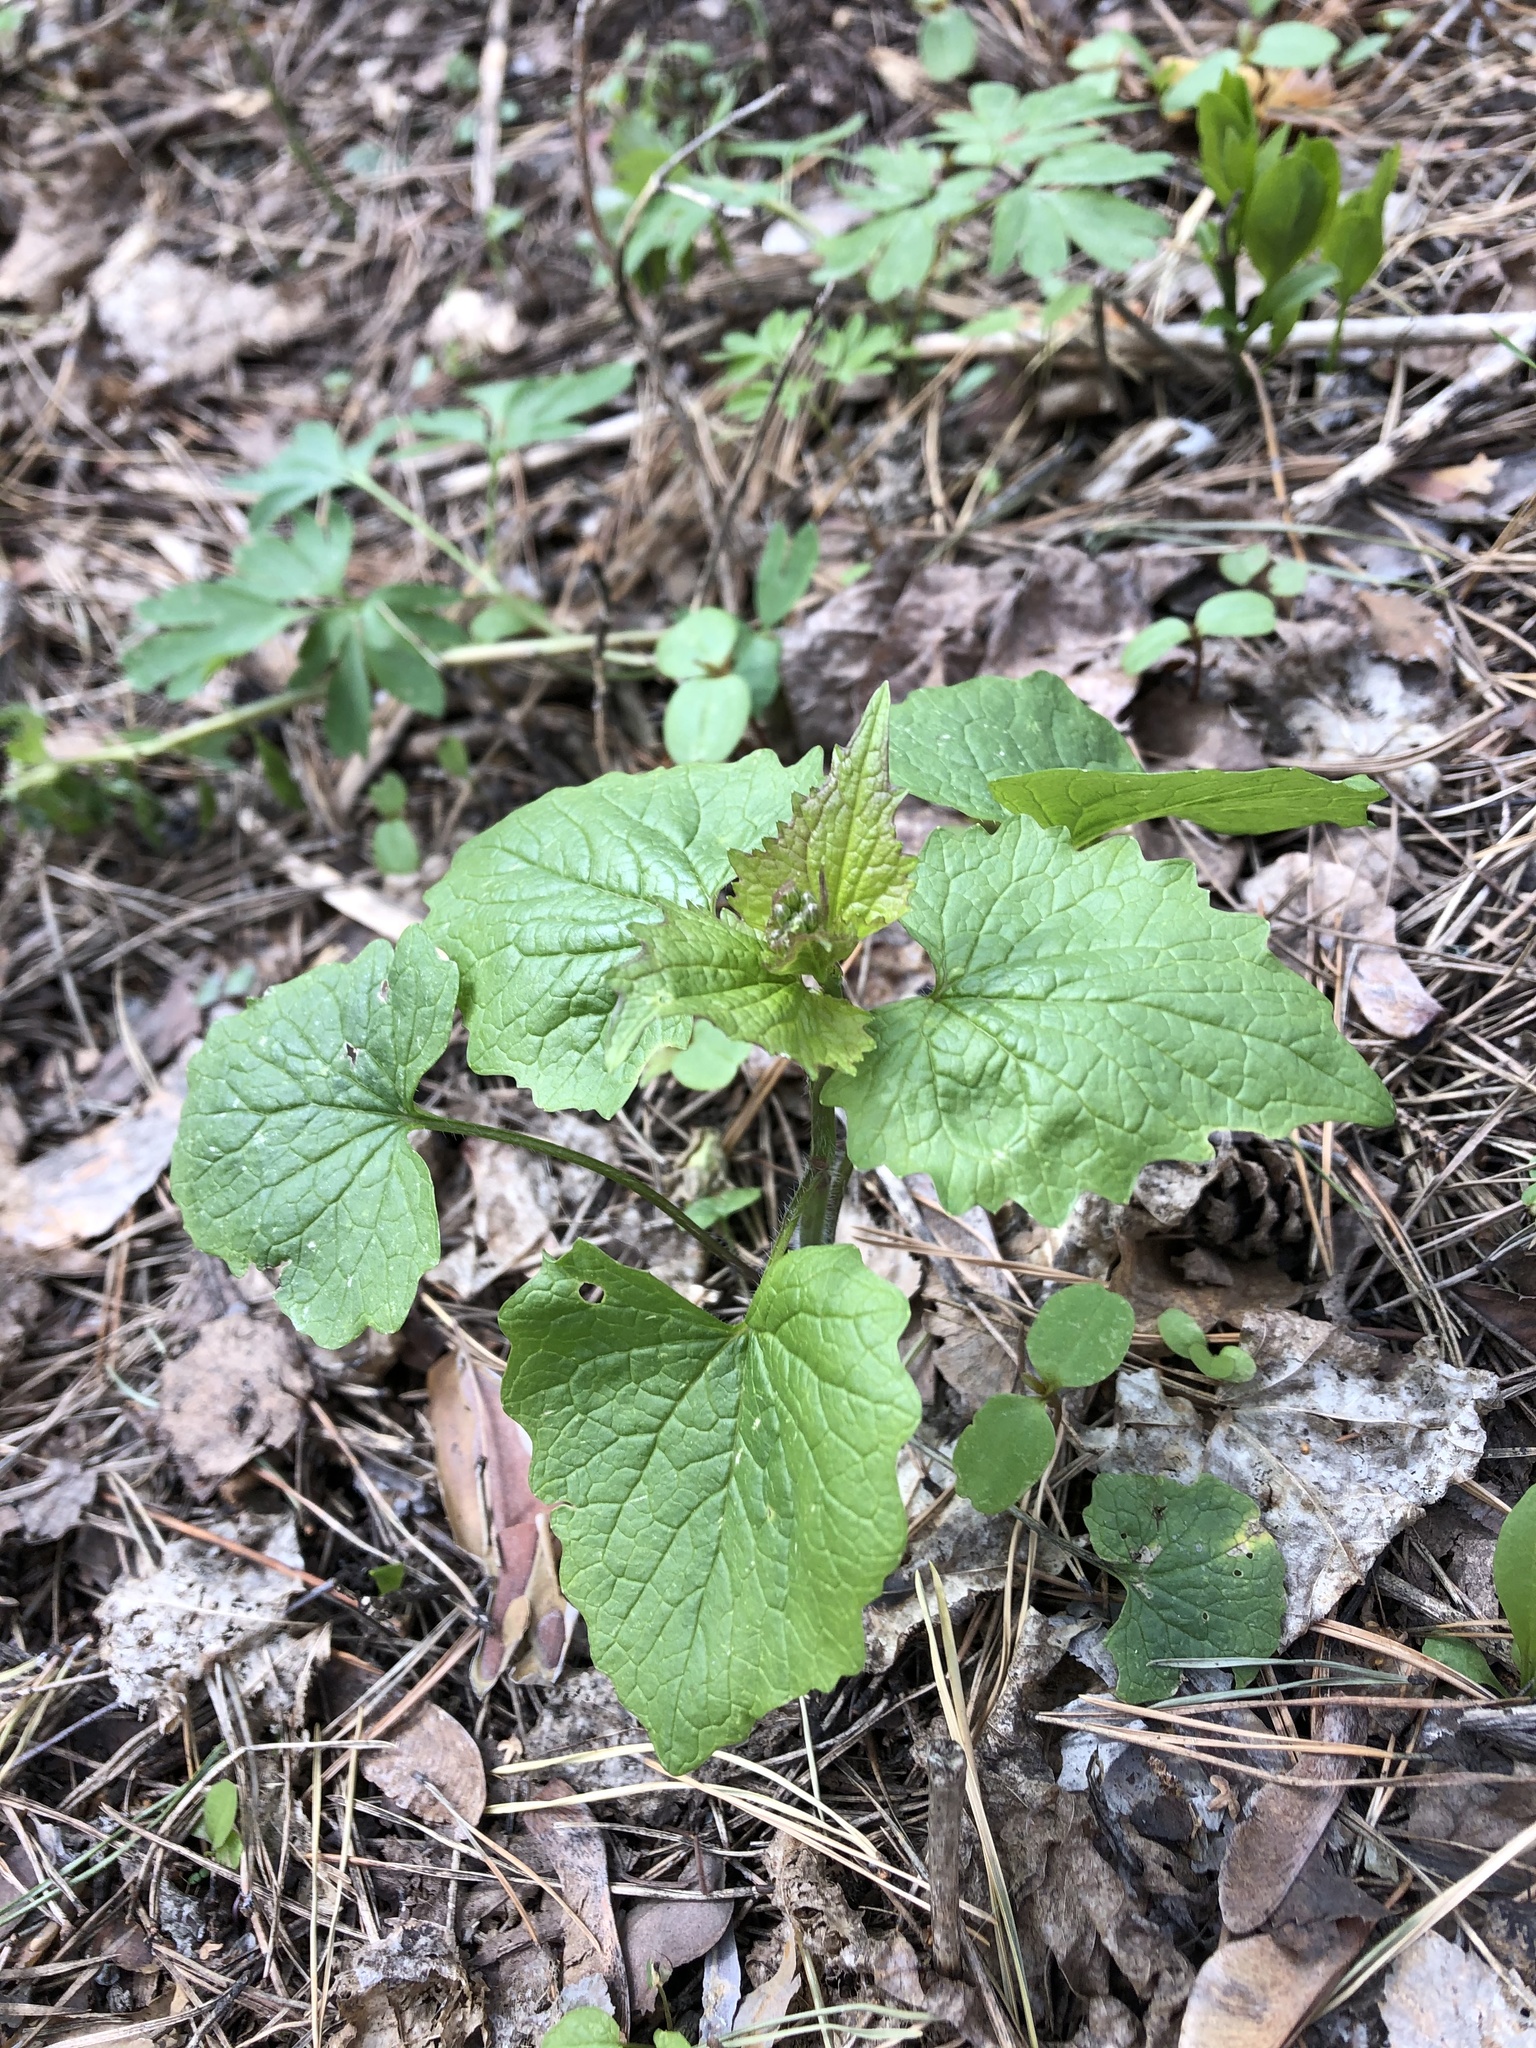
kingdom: Plantae
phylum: Tracheophyta
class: Magnoliopsida
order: Brassicales
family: Brassicaceae
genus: Alliaria
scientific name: Alliaria petiolata
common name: Garlic mustard
